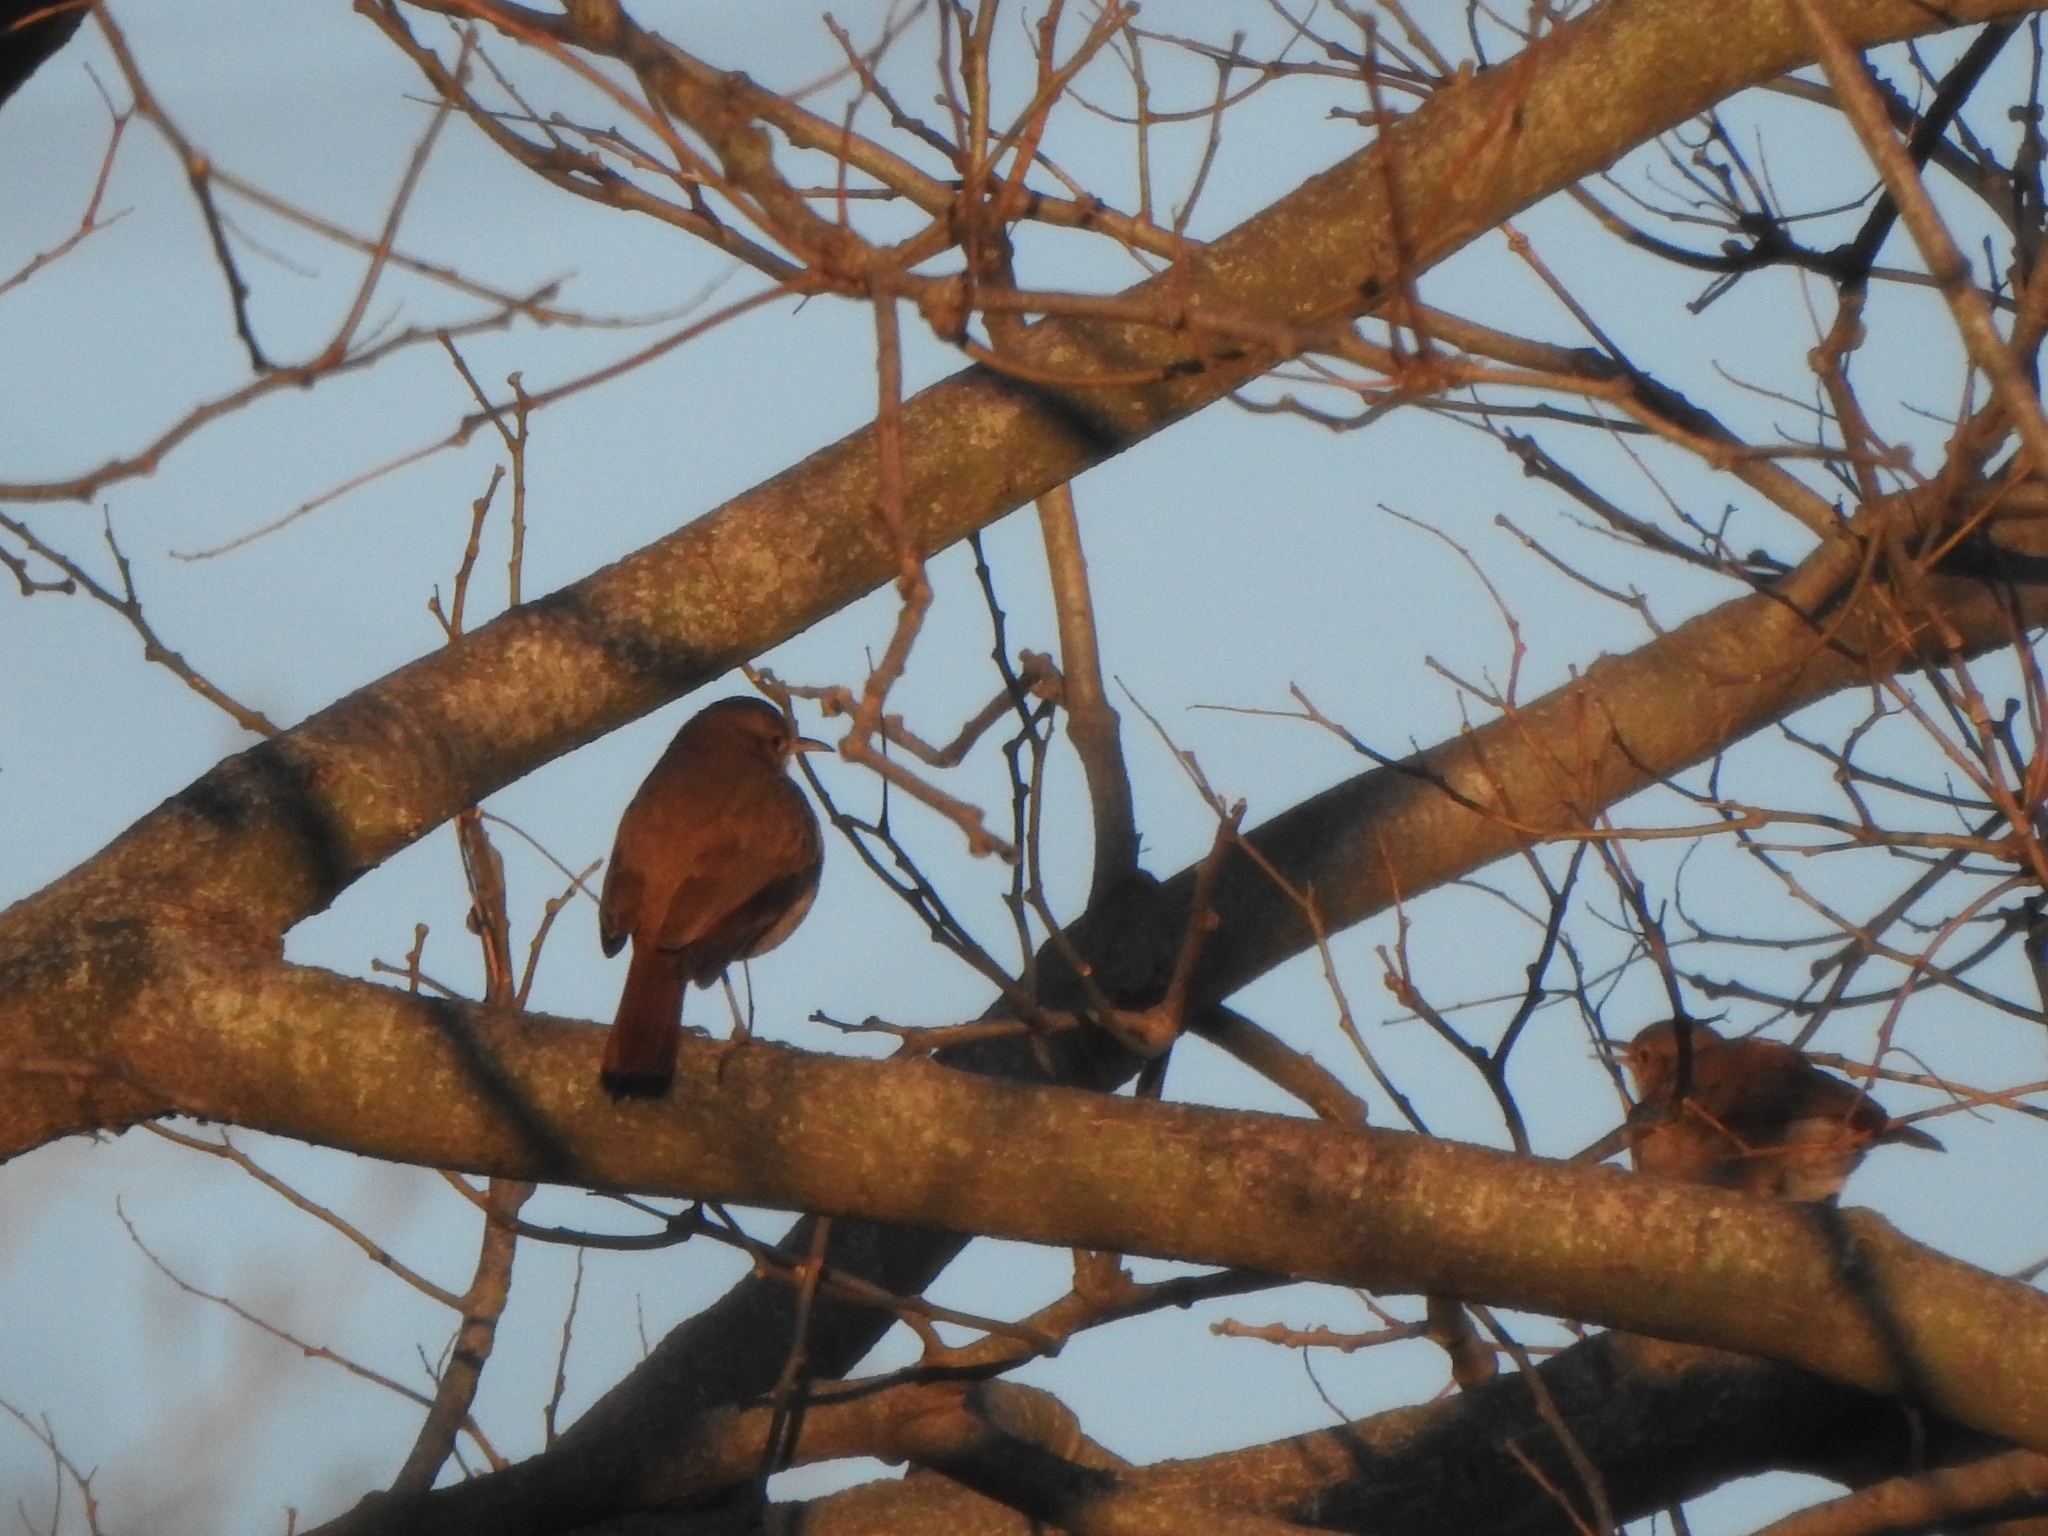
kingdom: Animalia
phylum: Chordata
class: Aves
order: Passeriformes
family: Furnariidae
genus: Furnarius
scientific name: Furnarius rufus
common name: Rufous hornero
